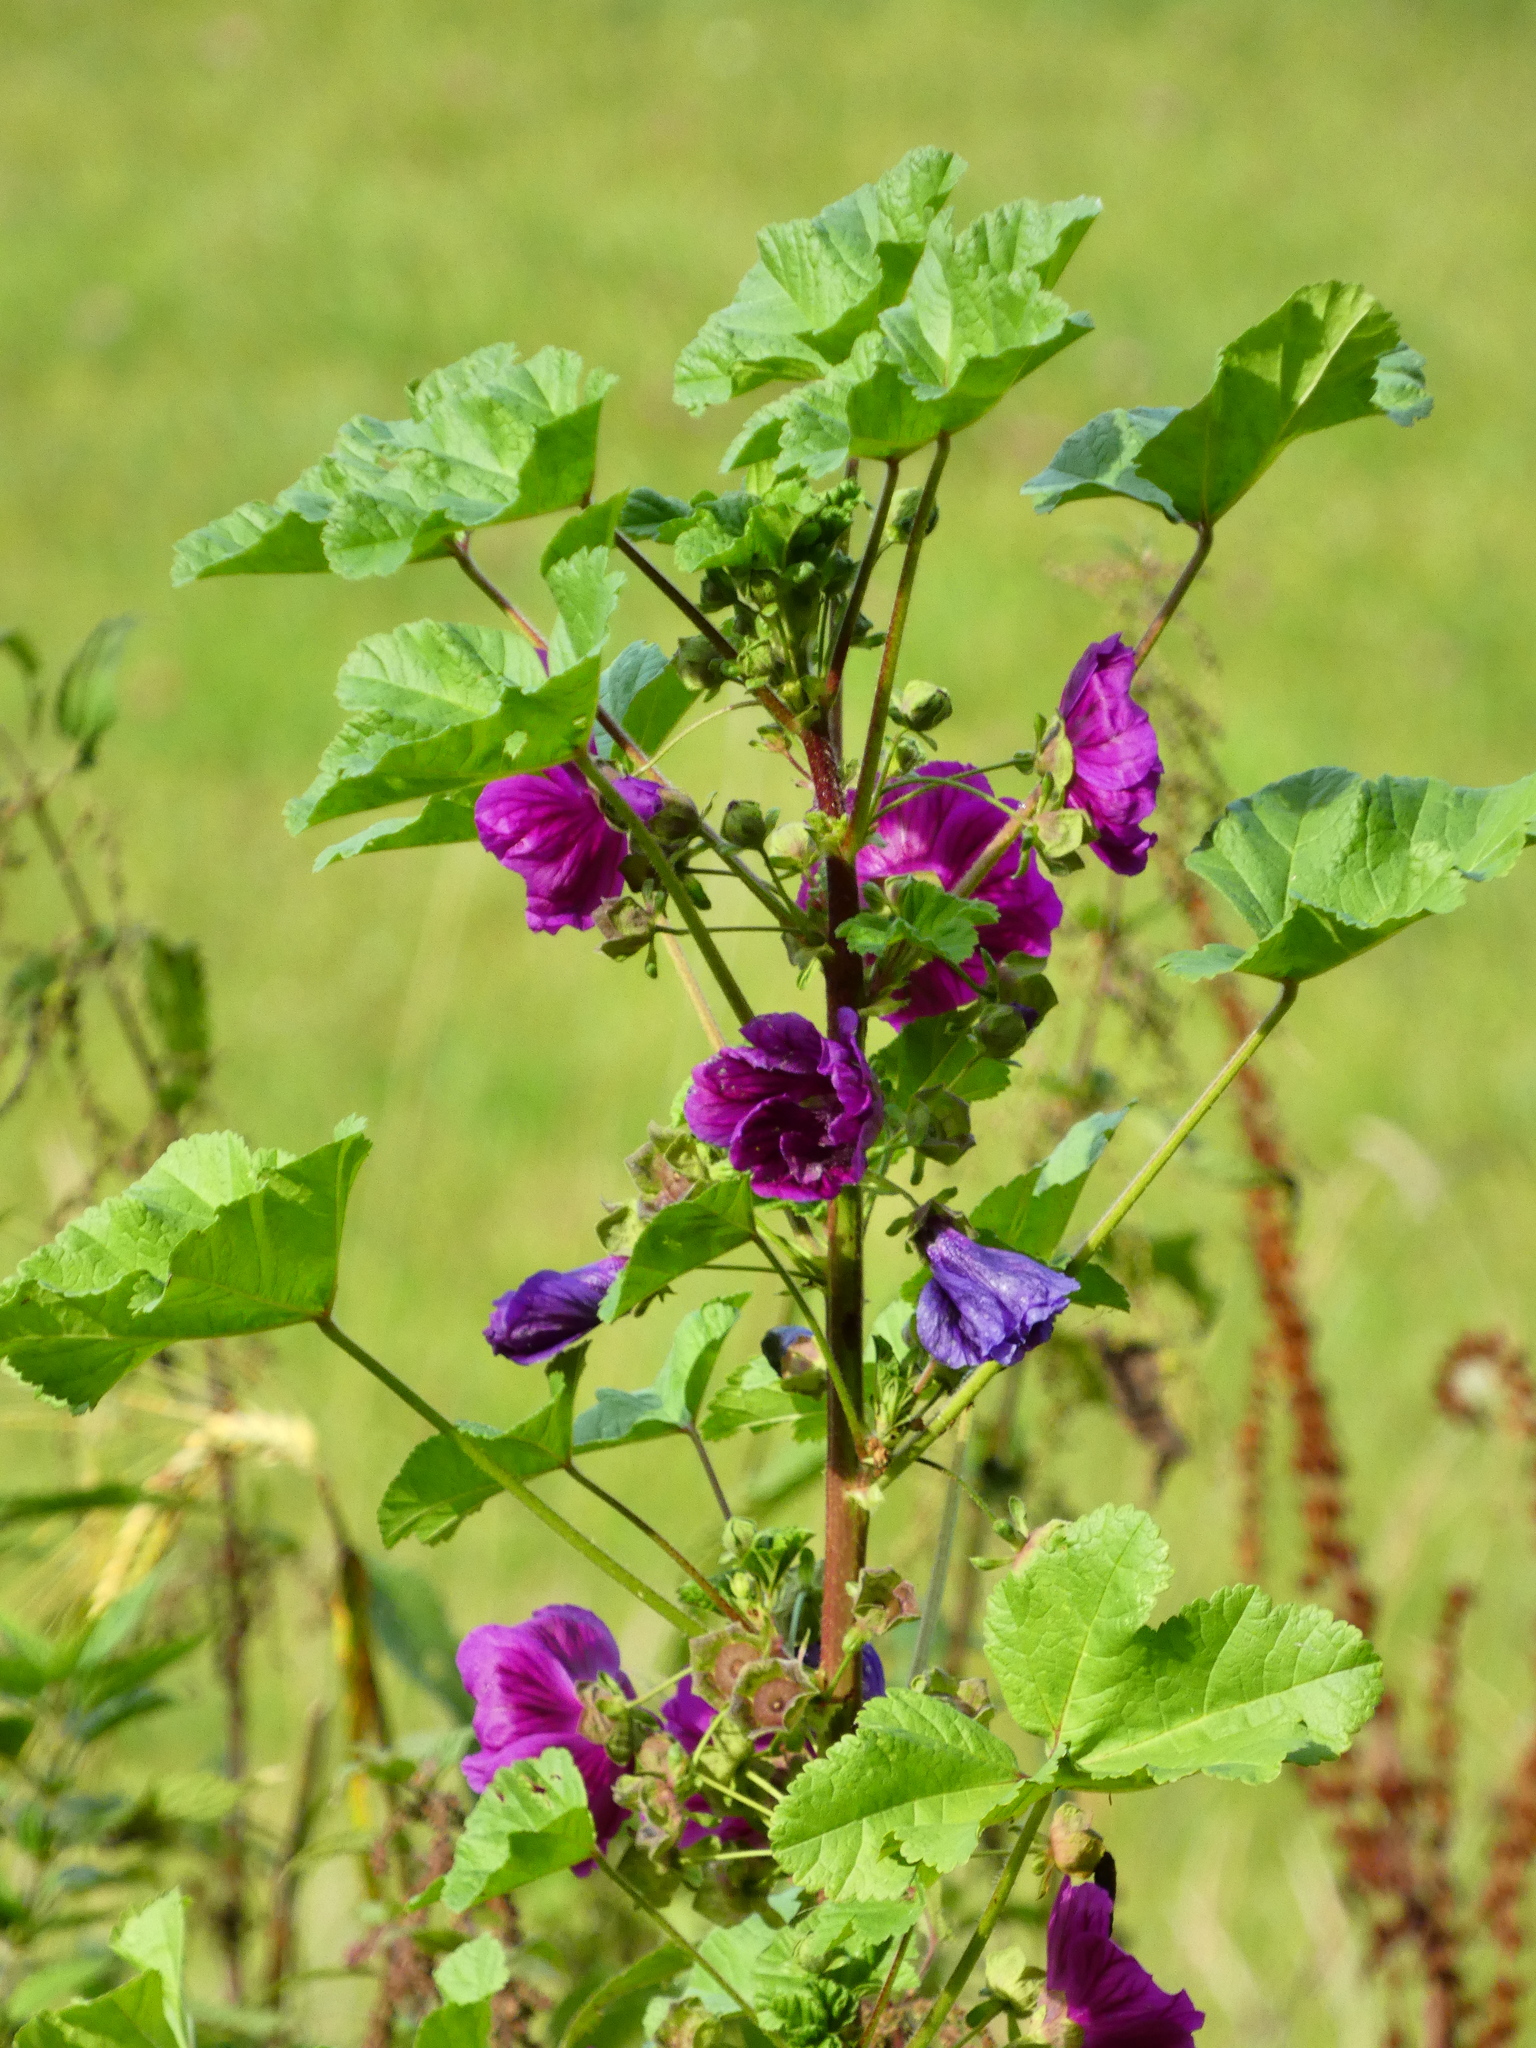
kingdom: Plantae
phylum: Tracheophyta
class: Magnoliopsida
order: Malvales
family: Malvaceae
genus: Malva
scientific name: Malva sylvestris
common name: Common mallow
